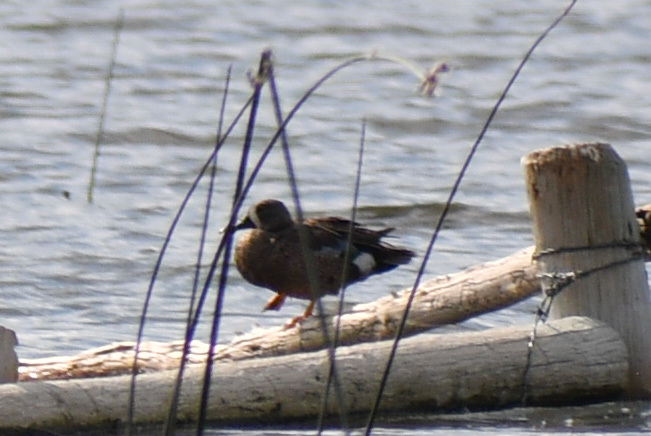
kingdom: Animalia
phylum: Chordata
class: Aves
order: Anseriformes
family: Anatidae
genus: Spatula
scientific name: Spatula discors
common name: Blue-winged teal
